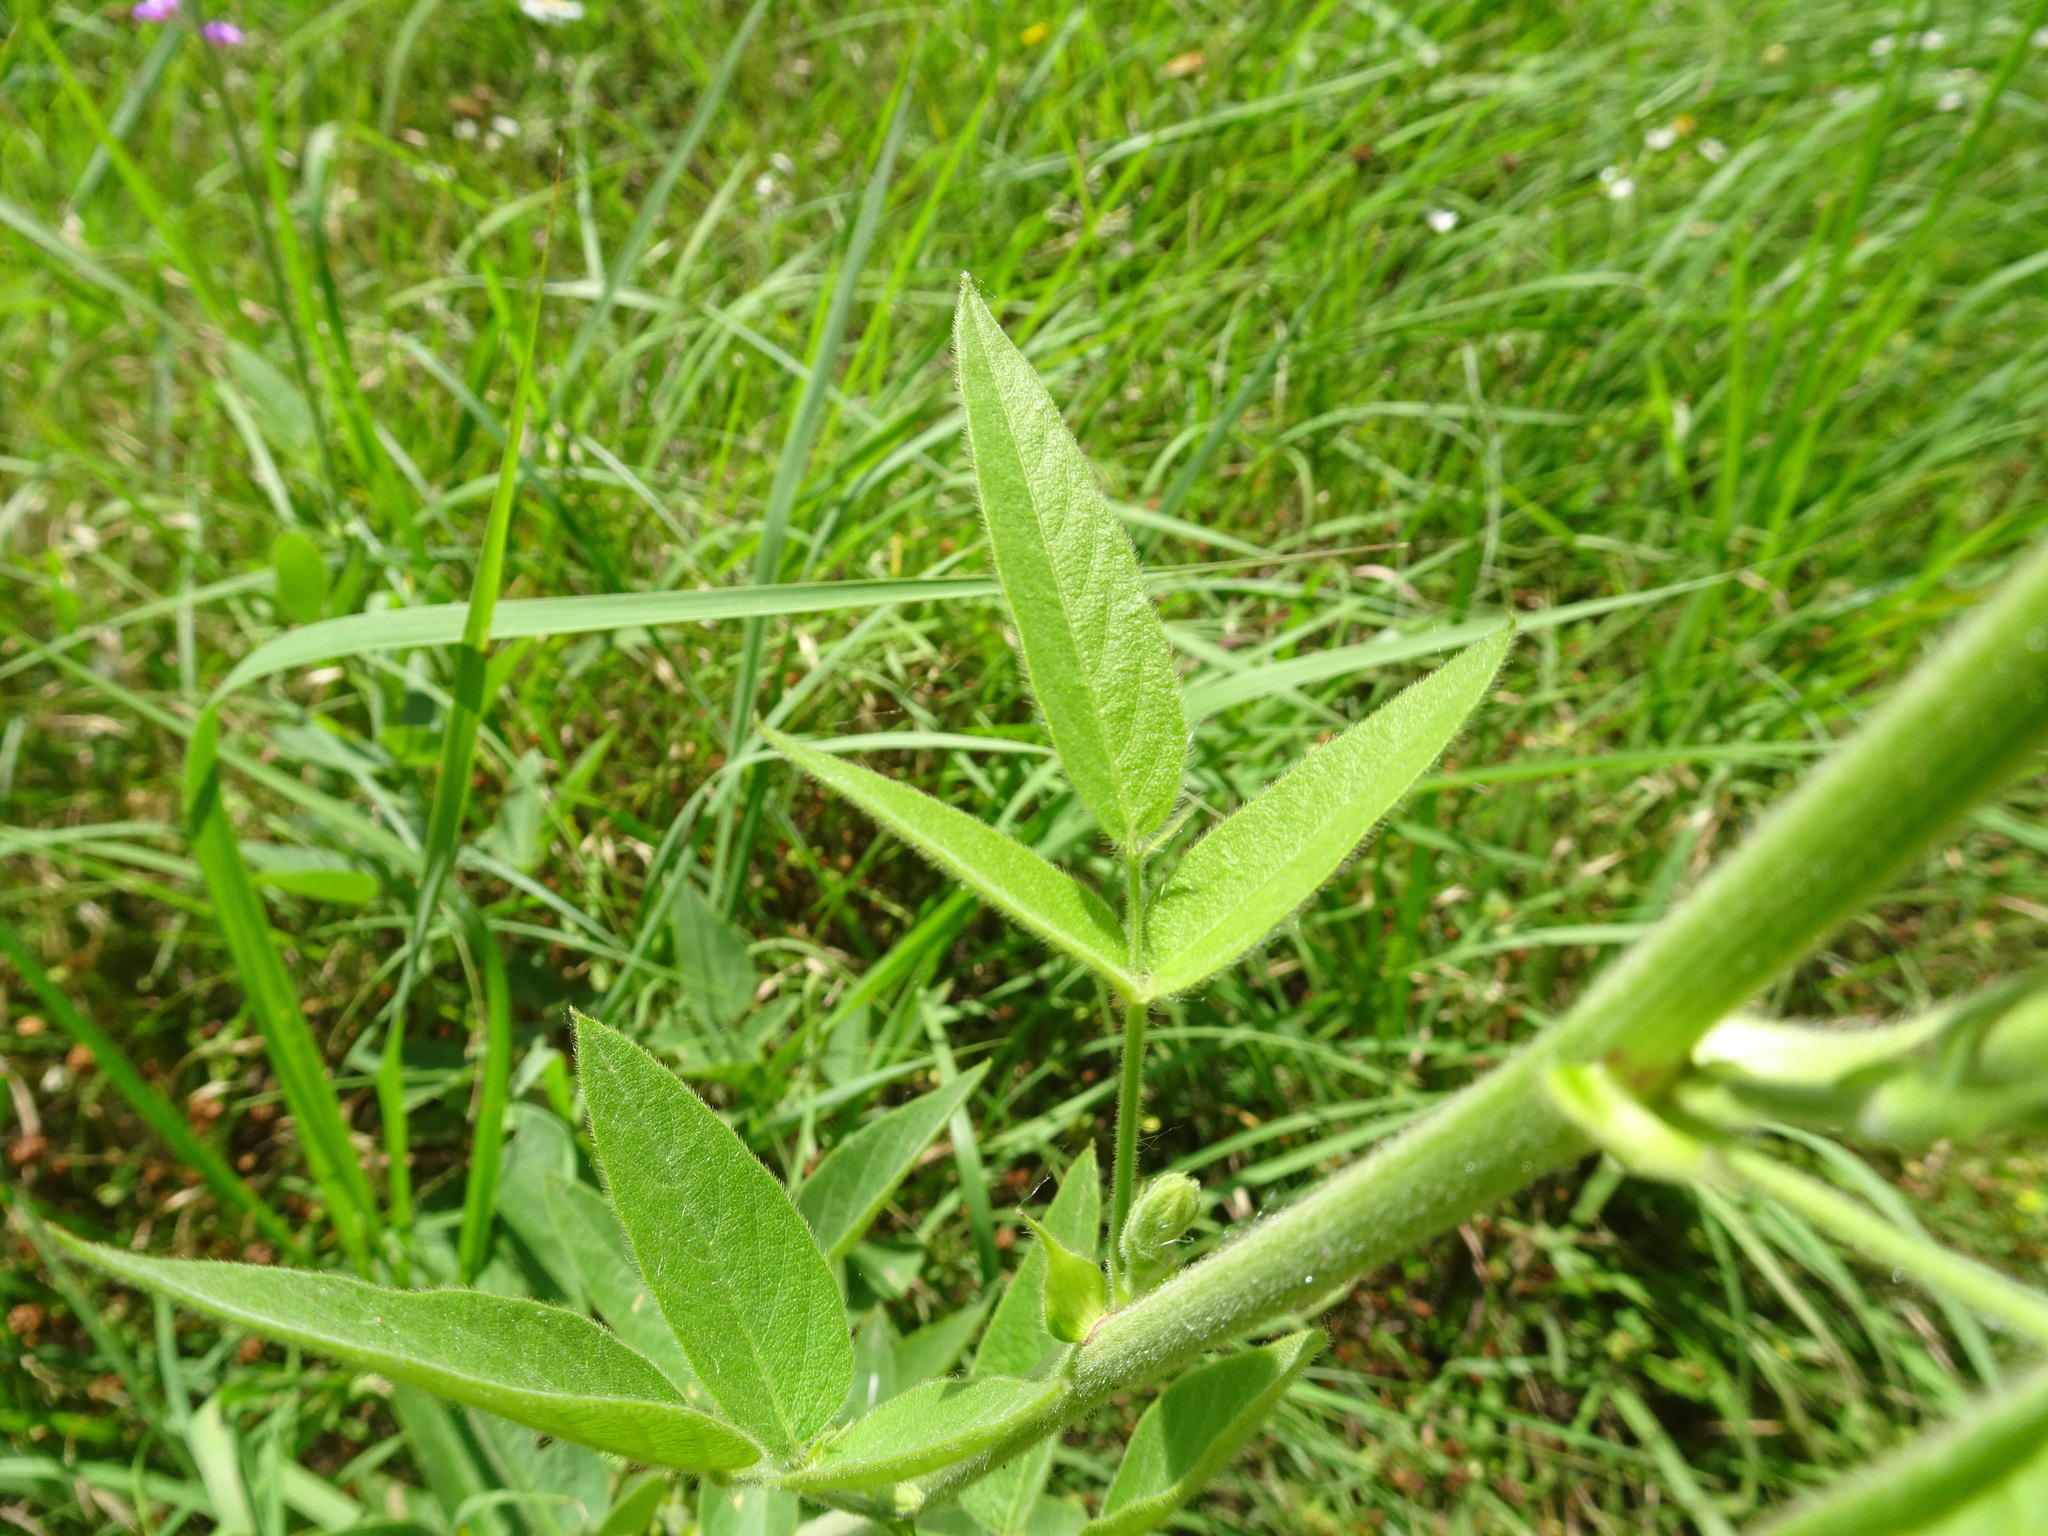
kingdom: Plantae
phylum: Tracheophyta
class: Magnoliopsida
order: Fabales
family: Fabaceae
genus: Desmodium
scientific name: Desmodium illinoense
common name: Illinois tick-clover
